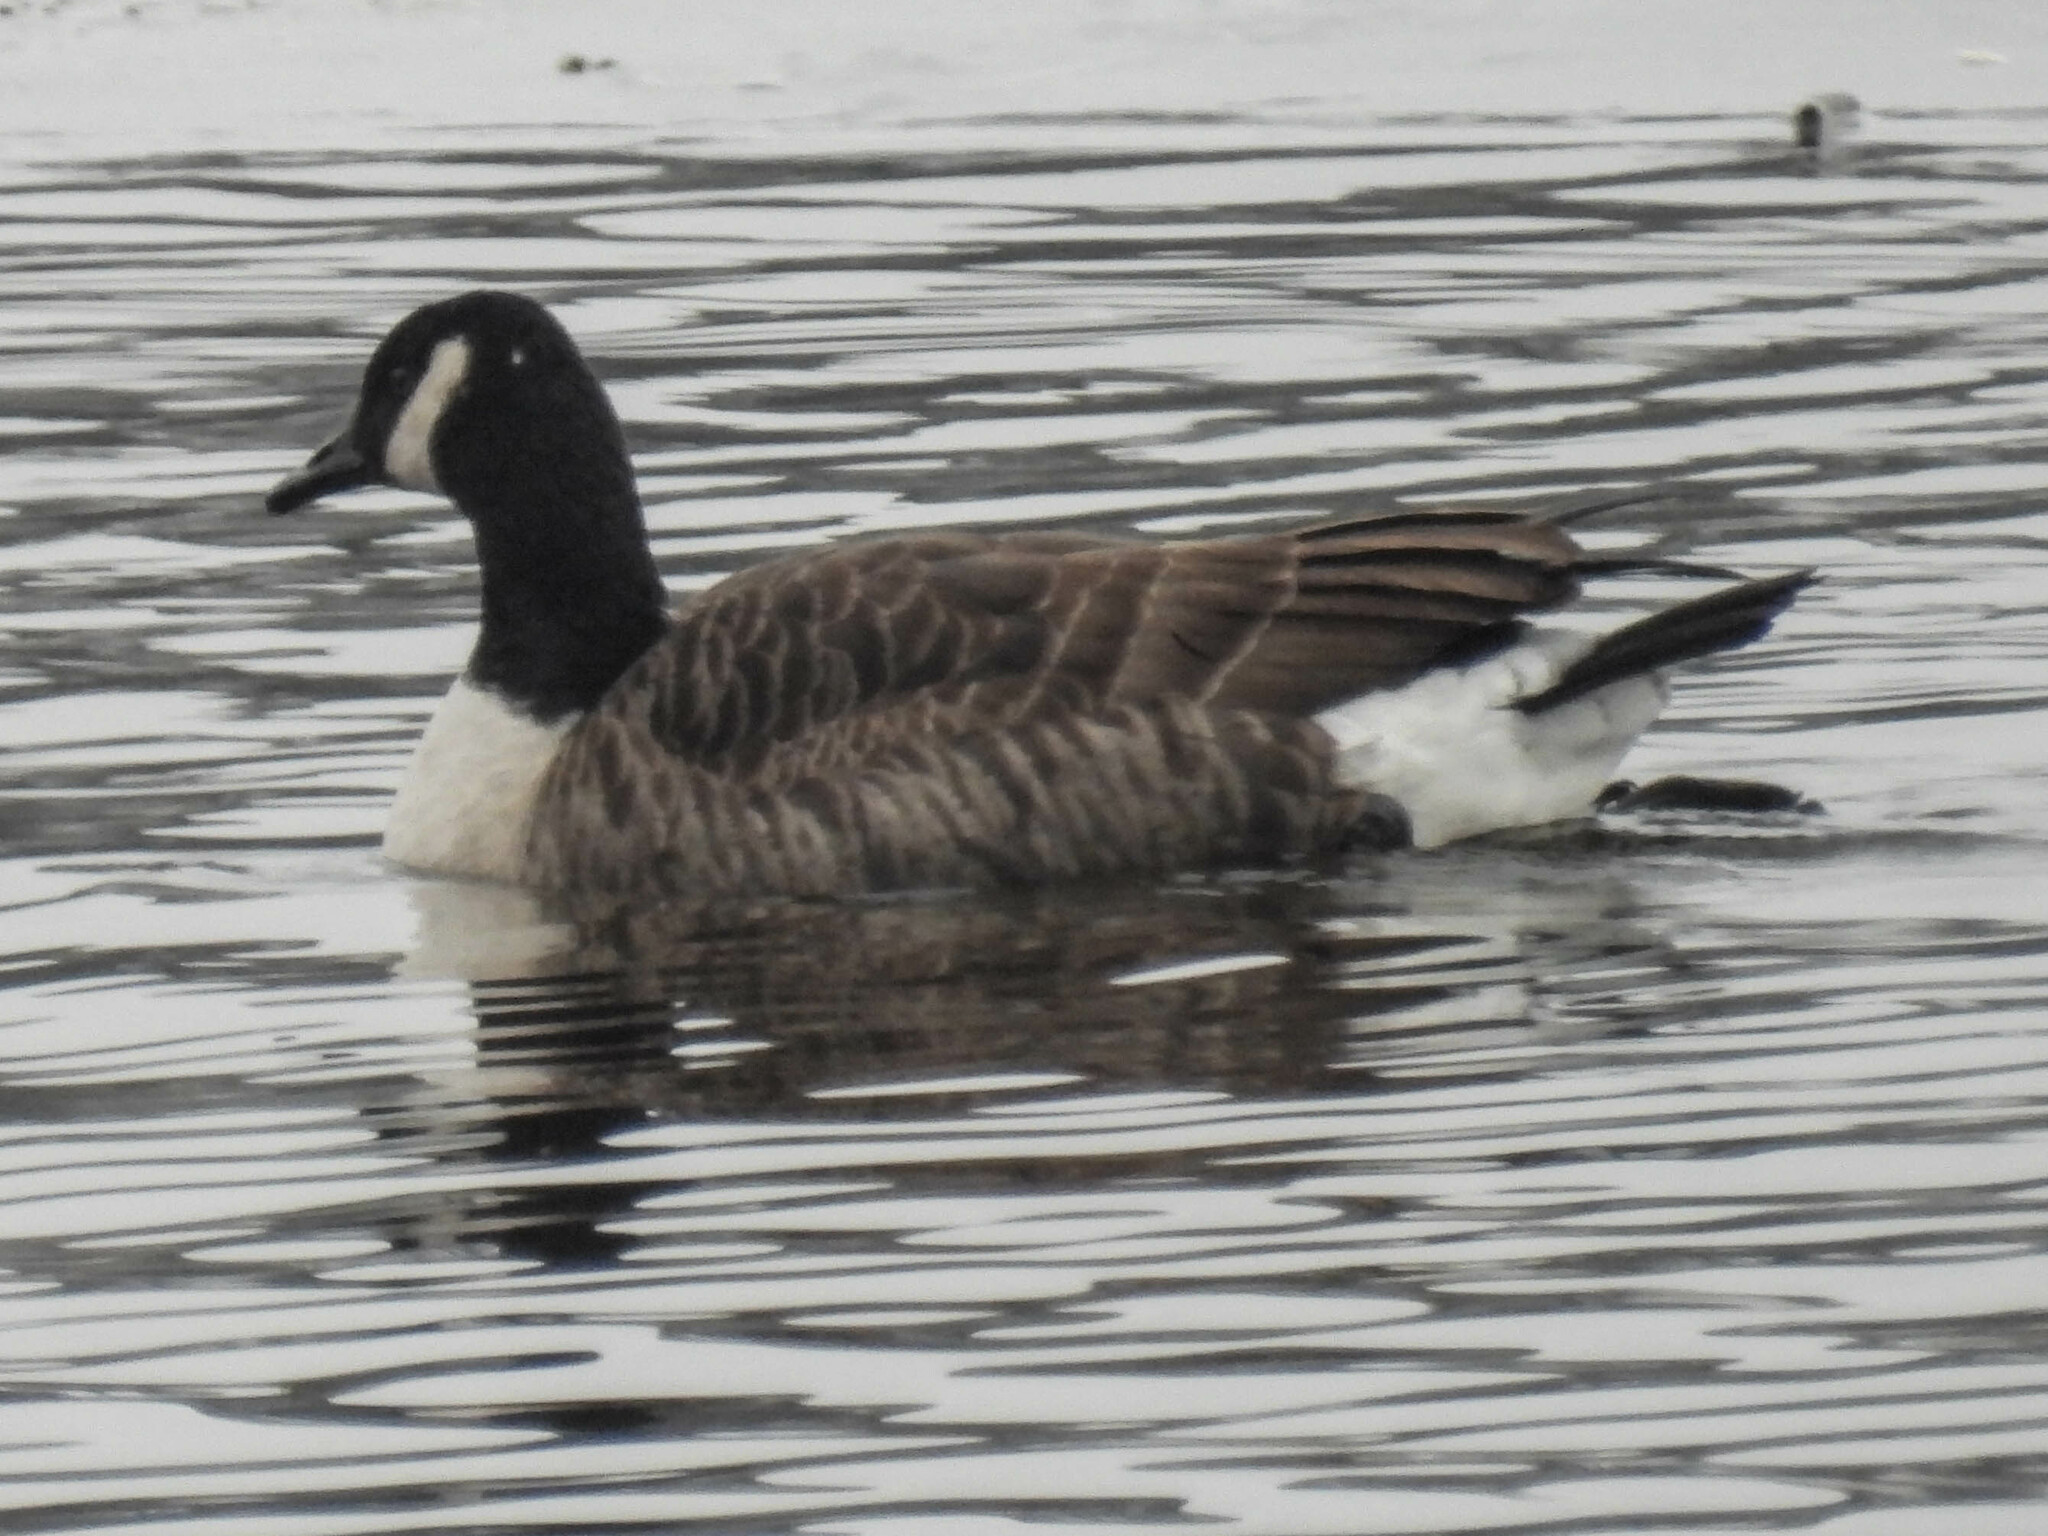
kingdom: Animalia
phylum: Chordata
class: Aves
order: Anseriformes
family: Anatidae
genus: Branta
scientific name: Branta canadensis
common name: Canada goose
